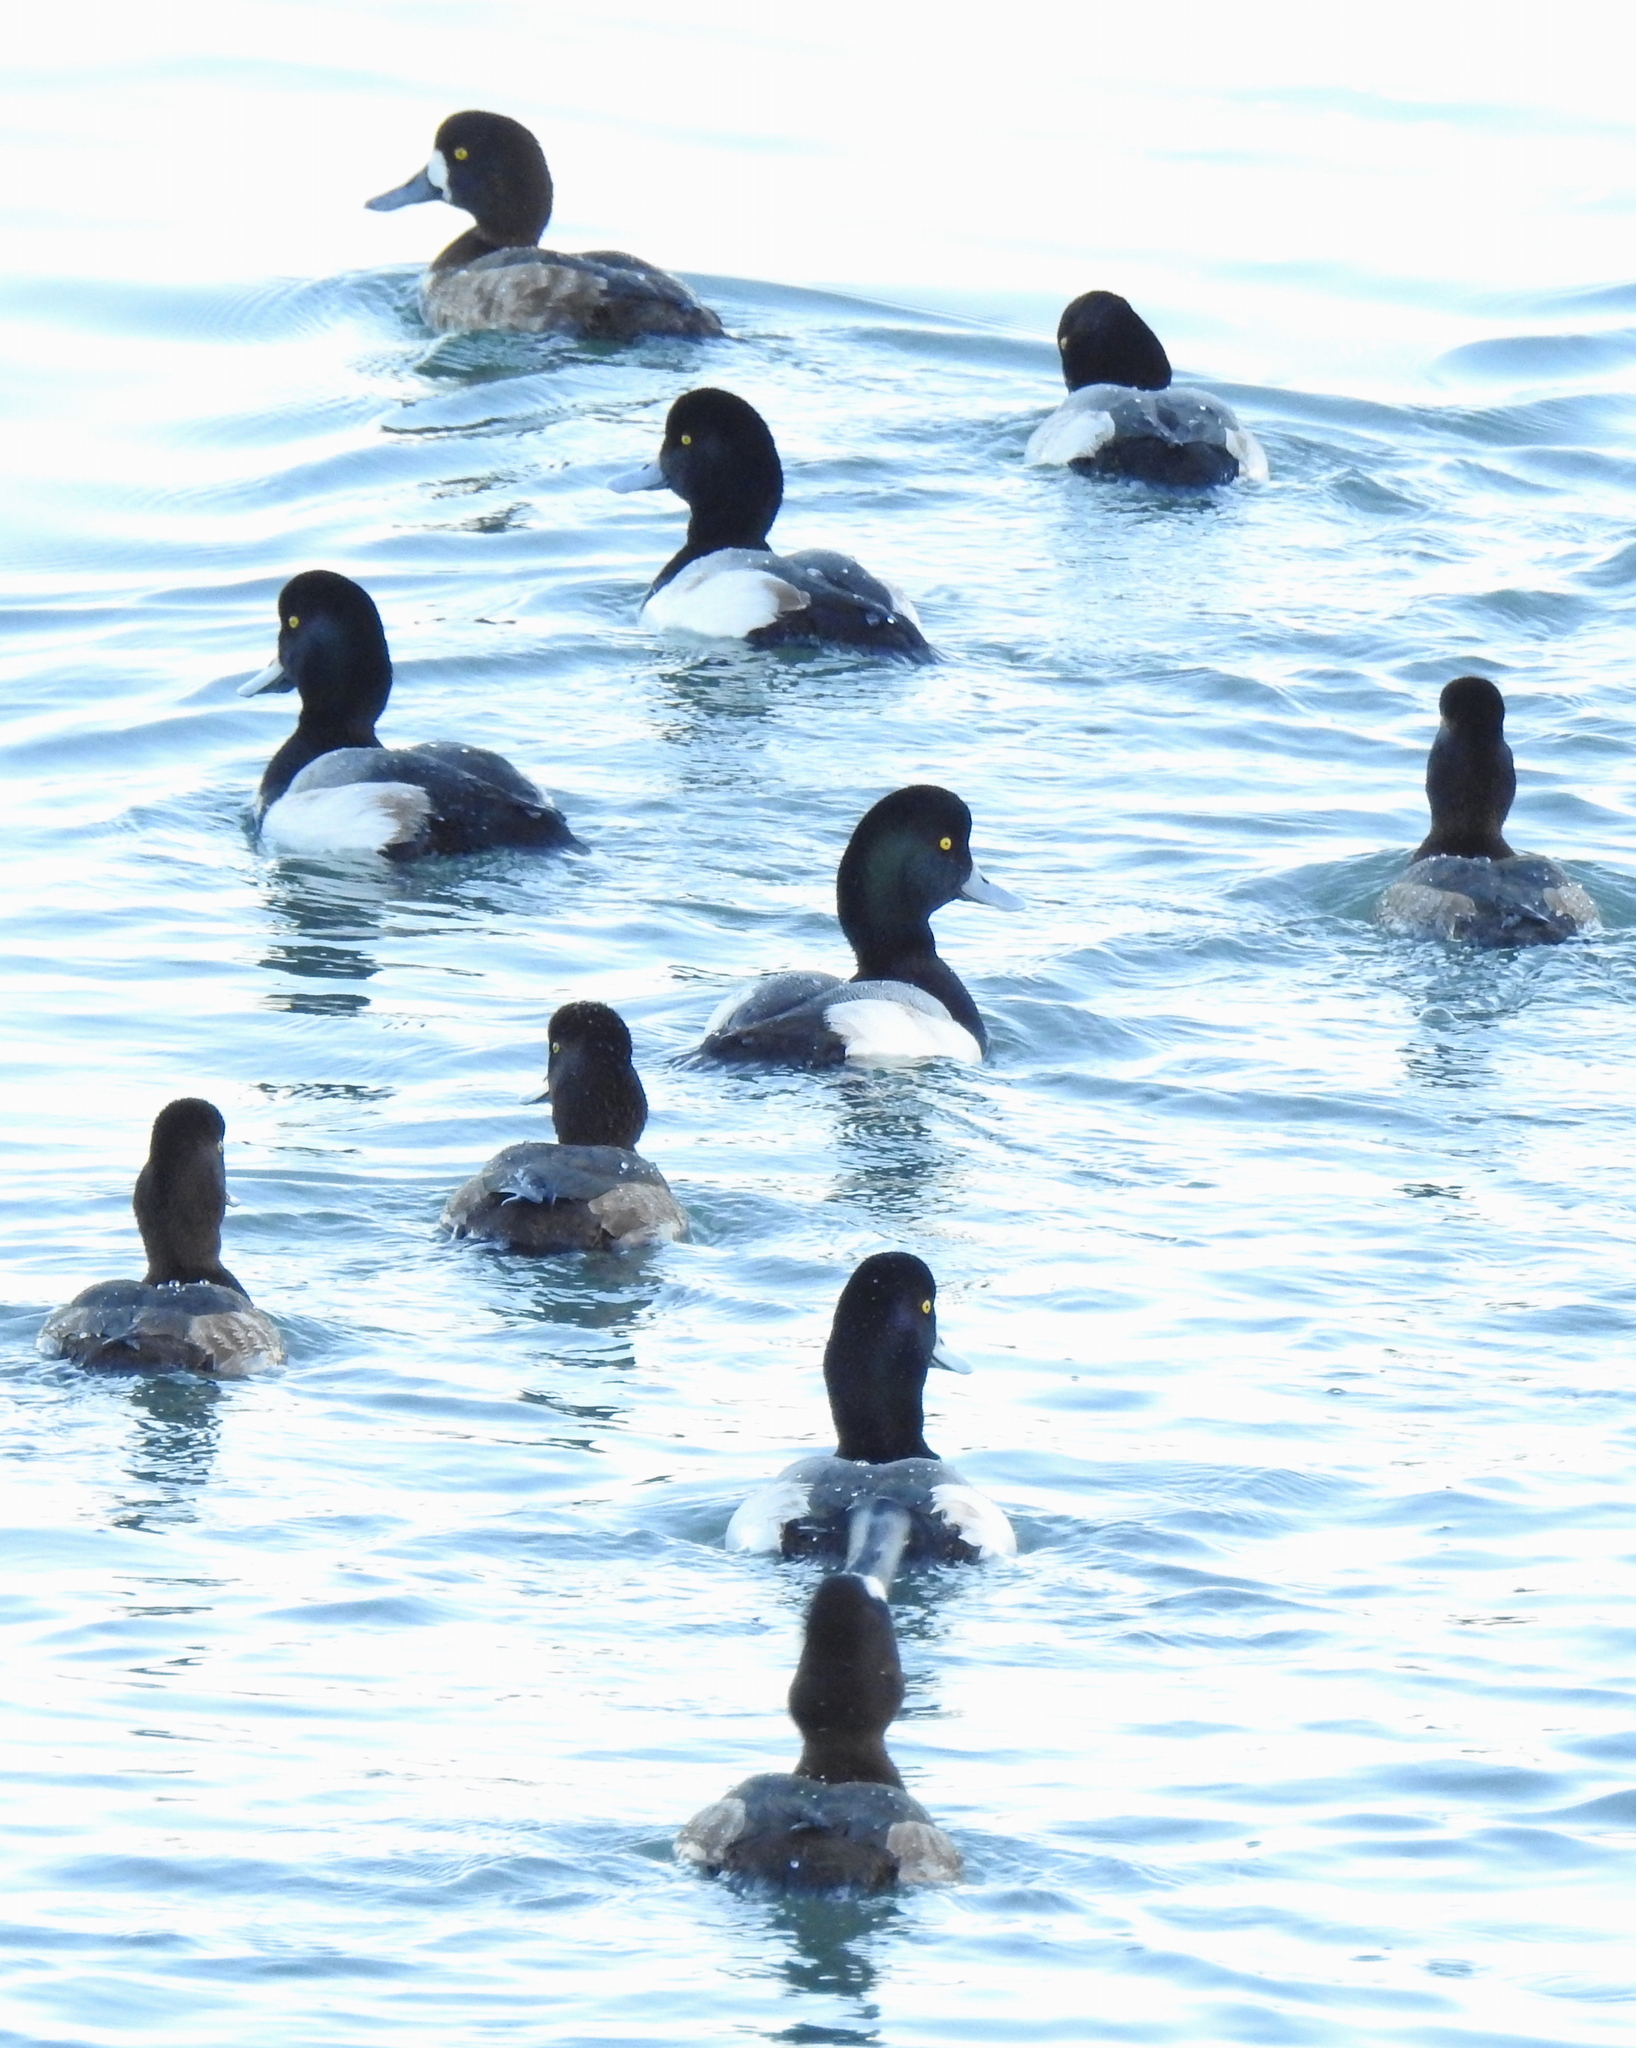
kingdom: Animalia
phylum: Chordata
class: Aves
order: Anseriformes
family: Anatidae
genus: Aythya
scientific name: Aythya marila
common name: Greater scaup
